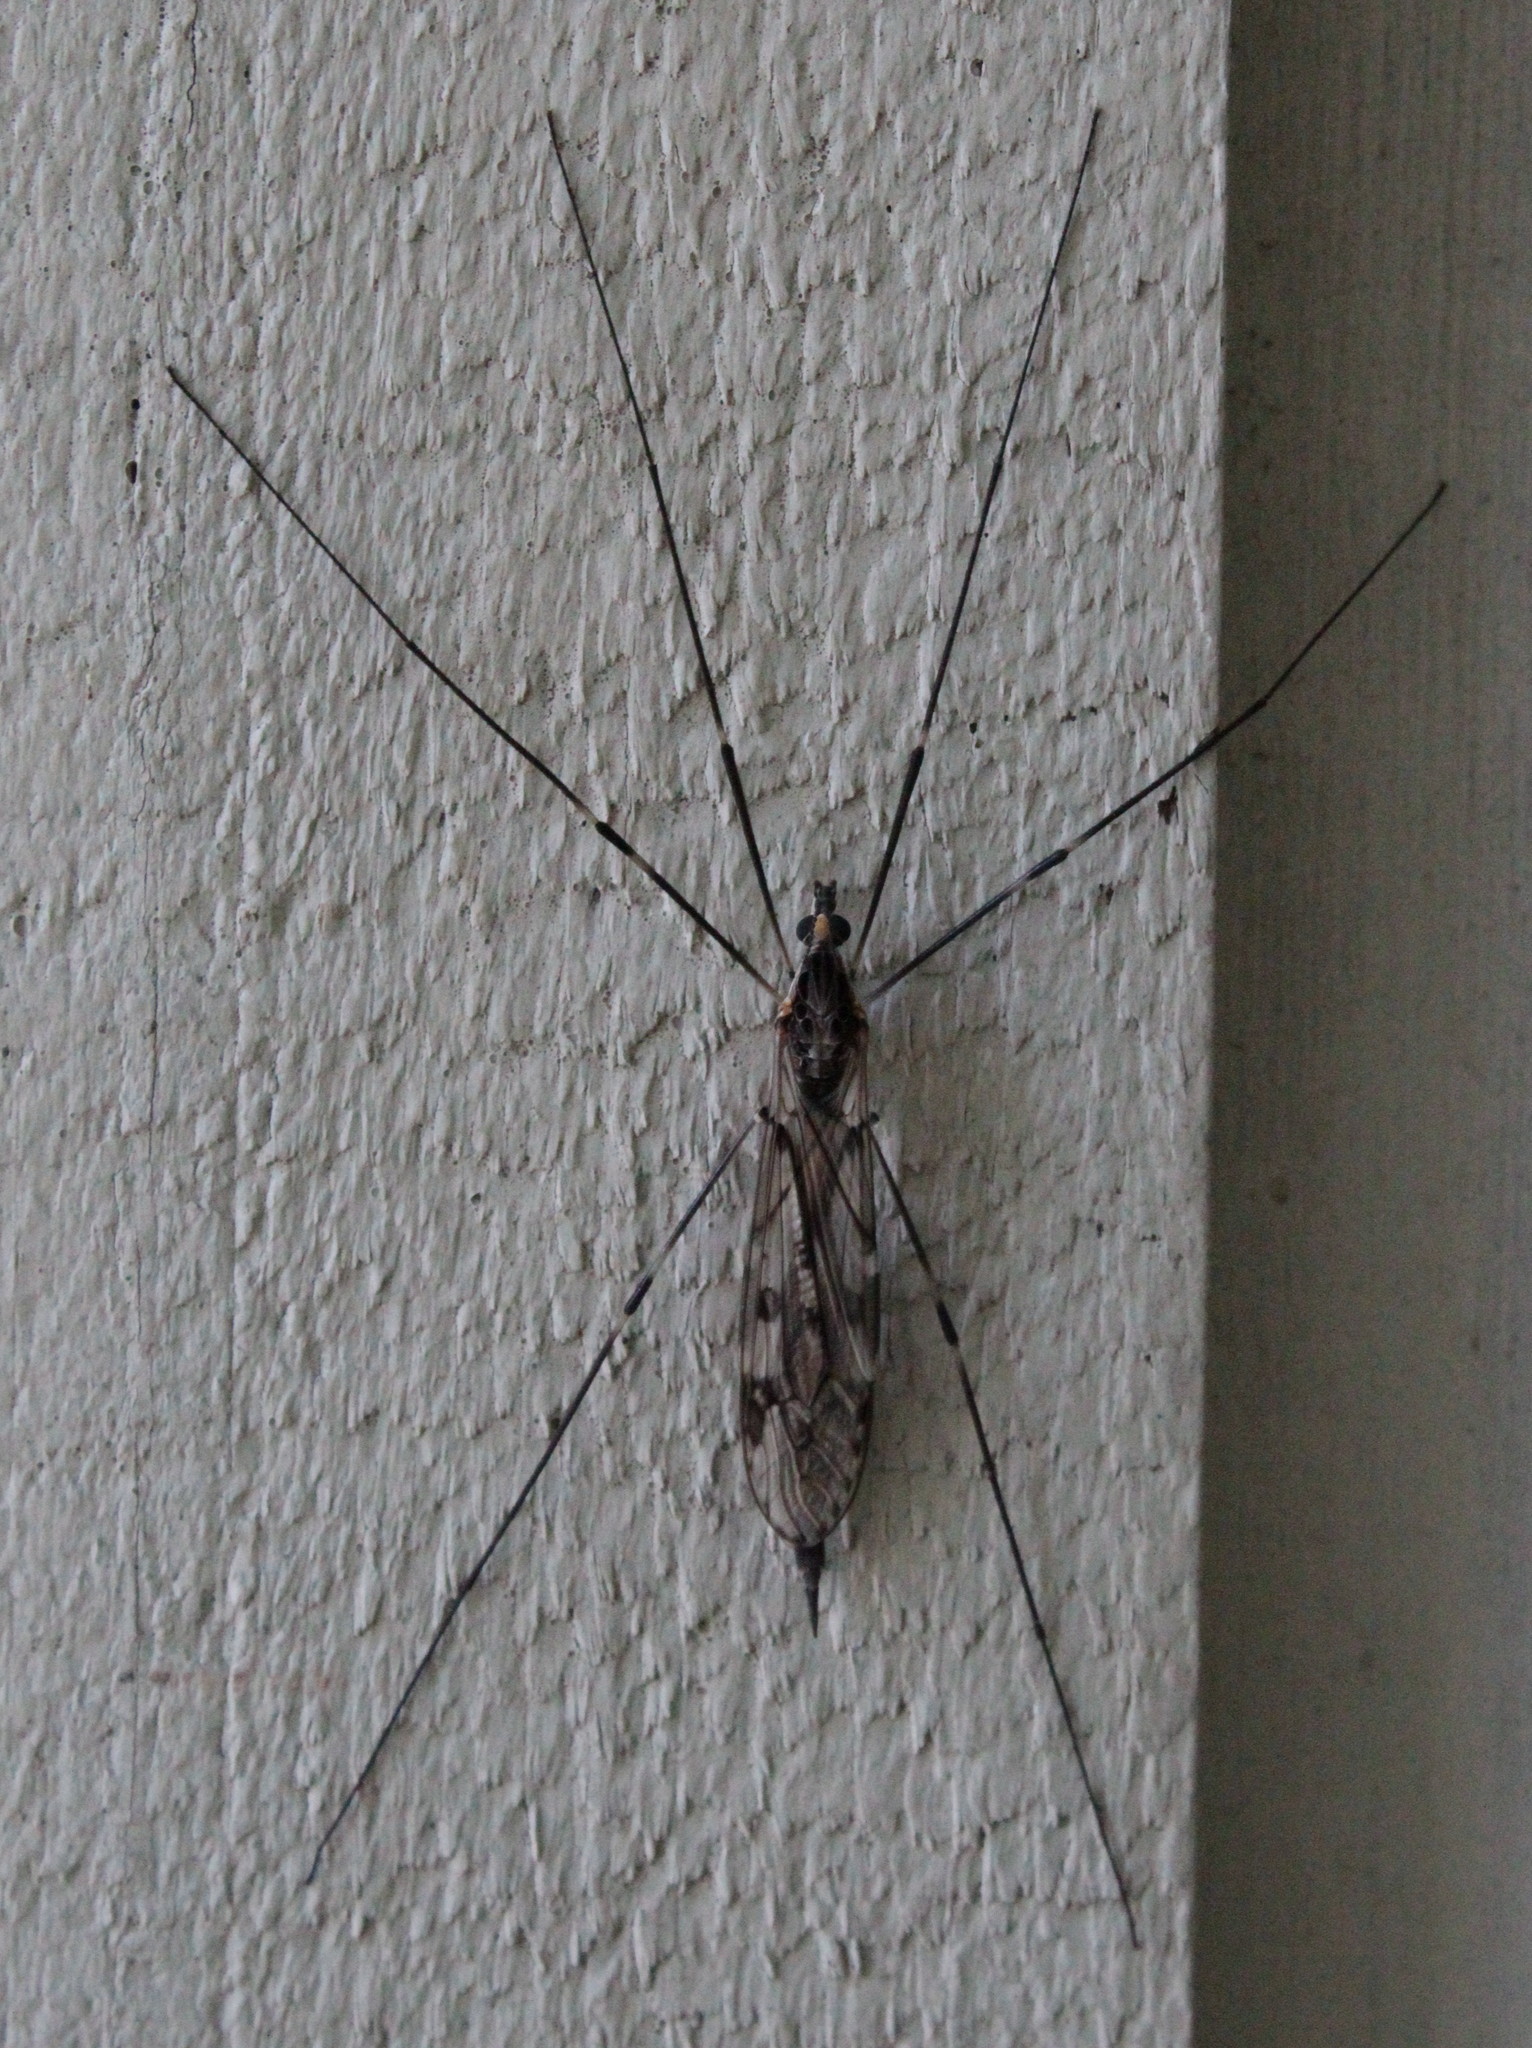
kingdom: Animalia
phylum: Arthropoda
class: Insecta
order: Diptera
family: Tipulidae
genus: Tipula
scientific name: Tipula abdominalis
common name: Giant crane fly
